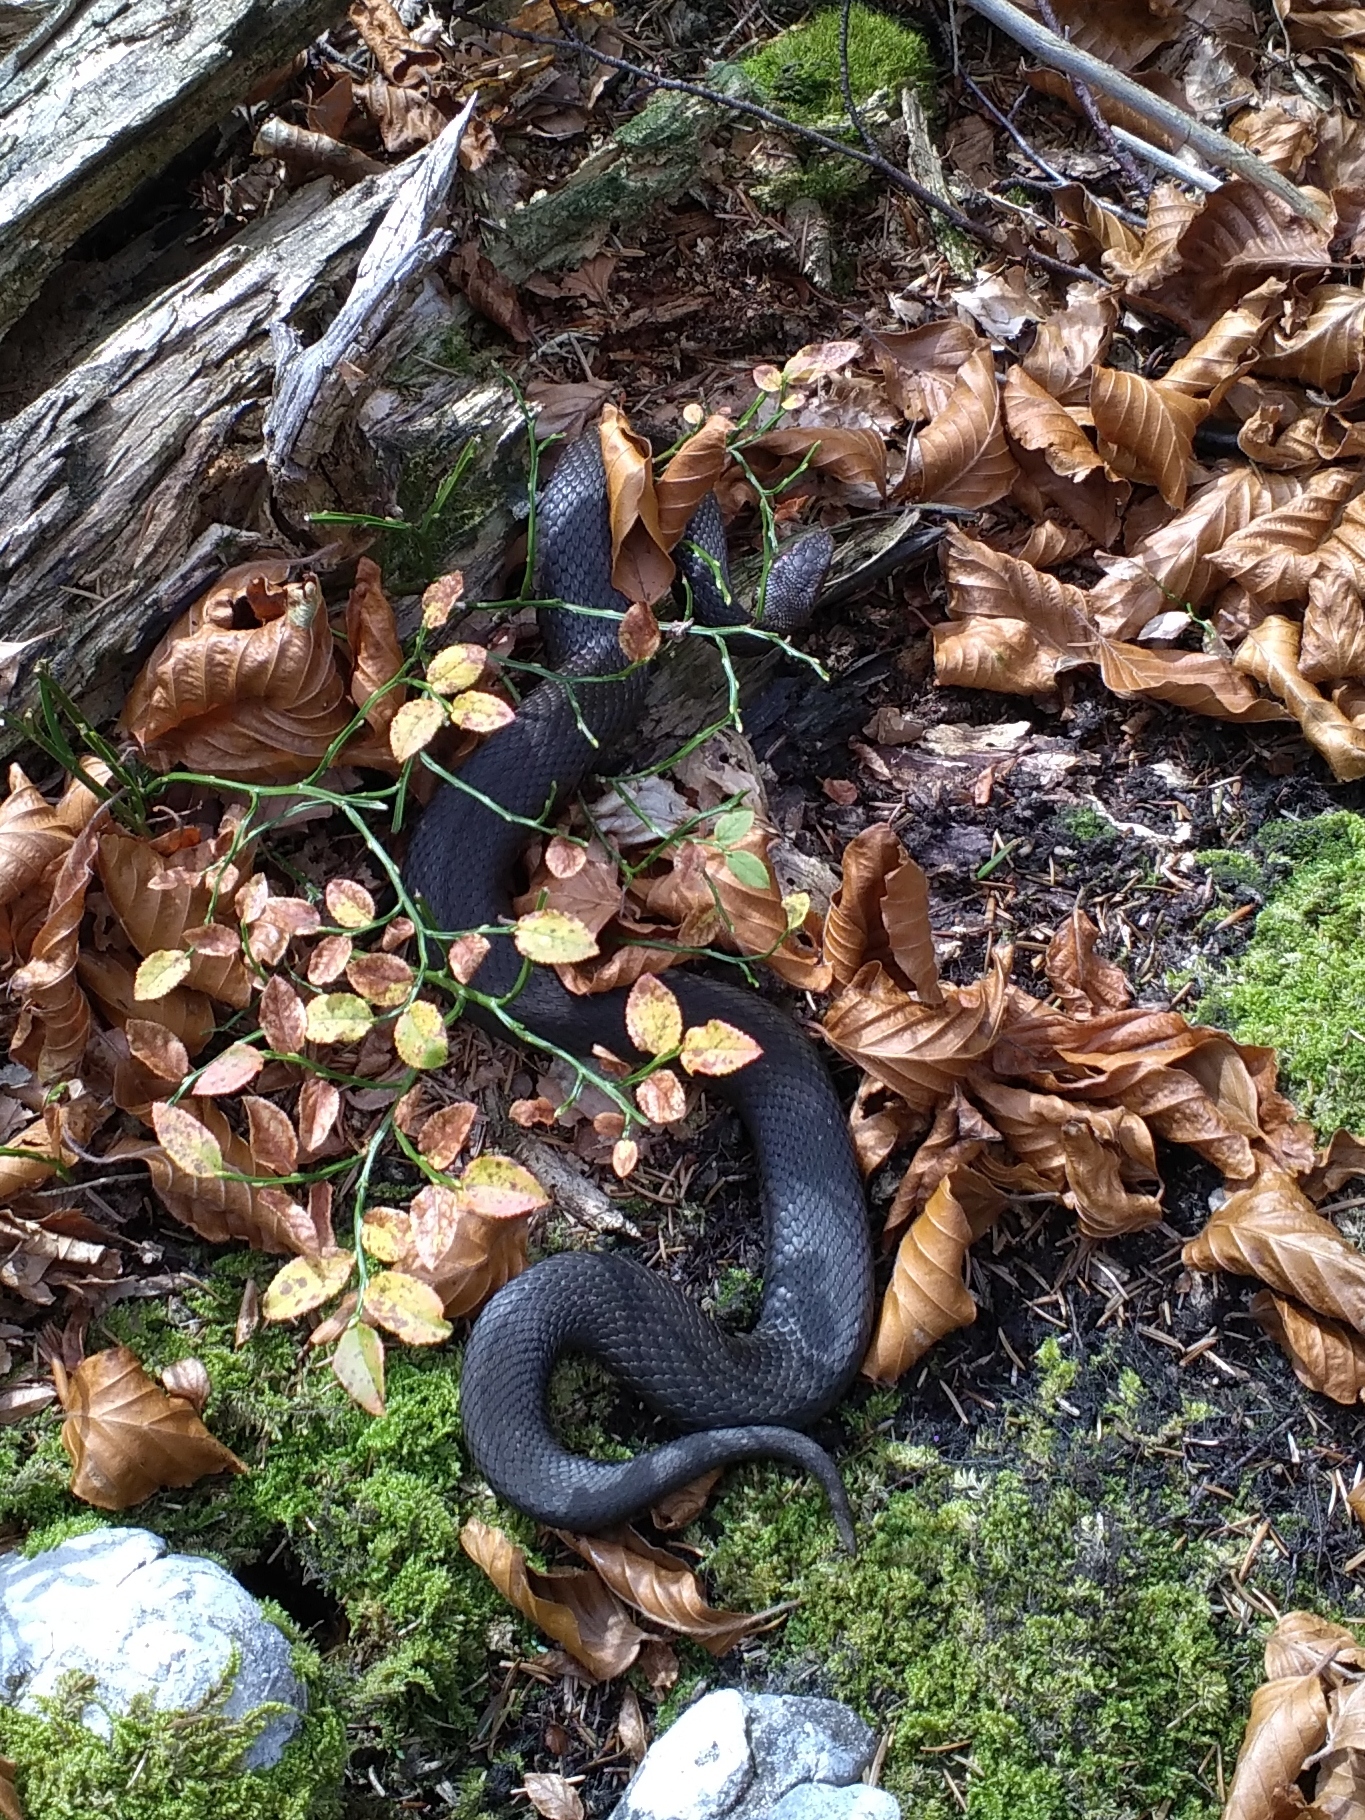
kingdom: Animalia
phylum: Chordata
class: Squamata
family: Viperidae
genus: Vipera
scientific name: Vipera berus
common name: Adder
